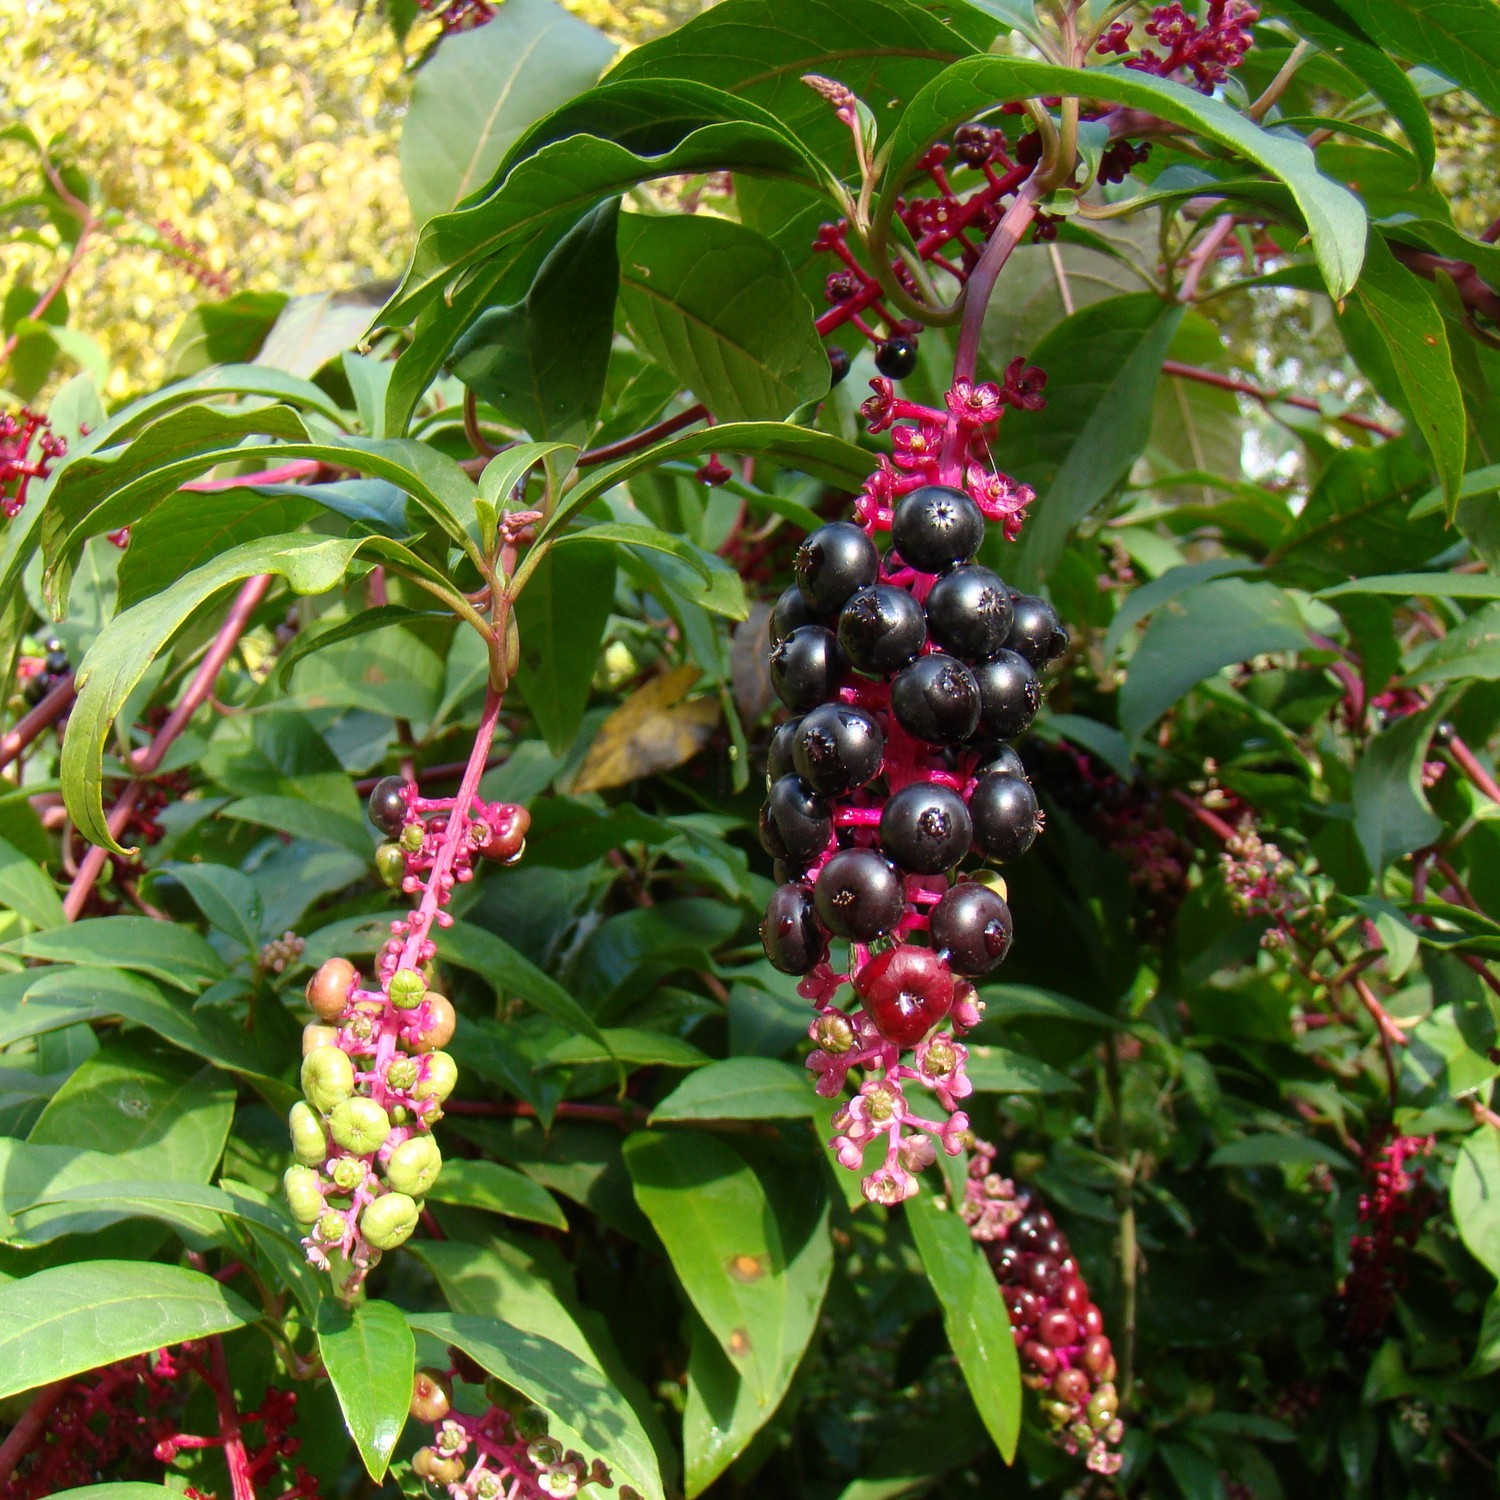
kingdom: Plantae
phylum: Tracheophyta
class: Magnoliopsida
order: Caryophyllales
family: Phytolaccaceae
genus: Phytolacca
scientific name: Phytolacca americana
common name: American pokeweed
